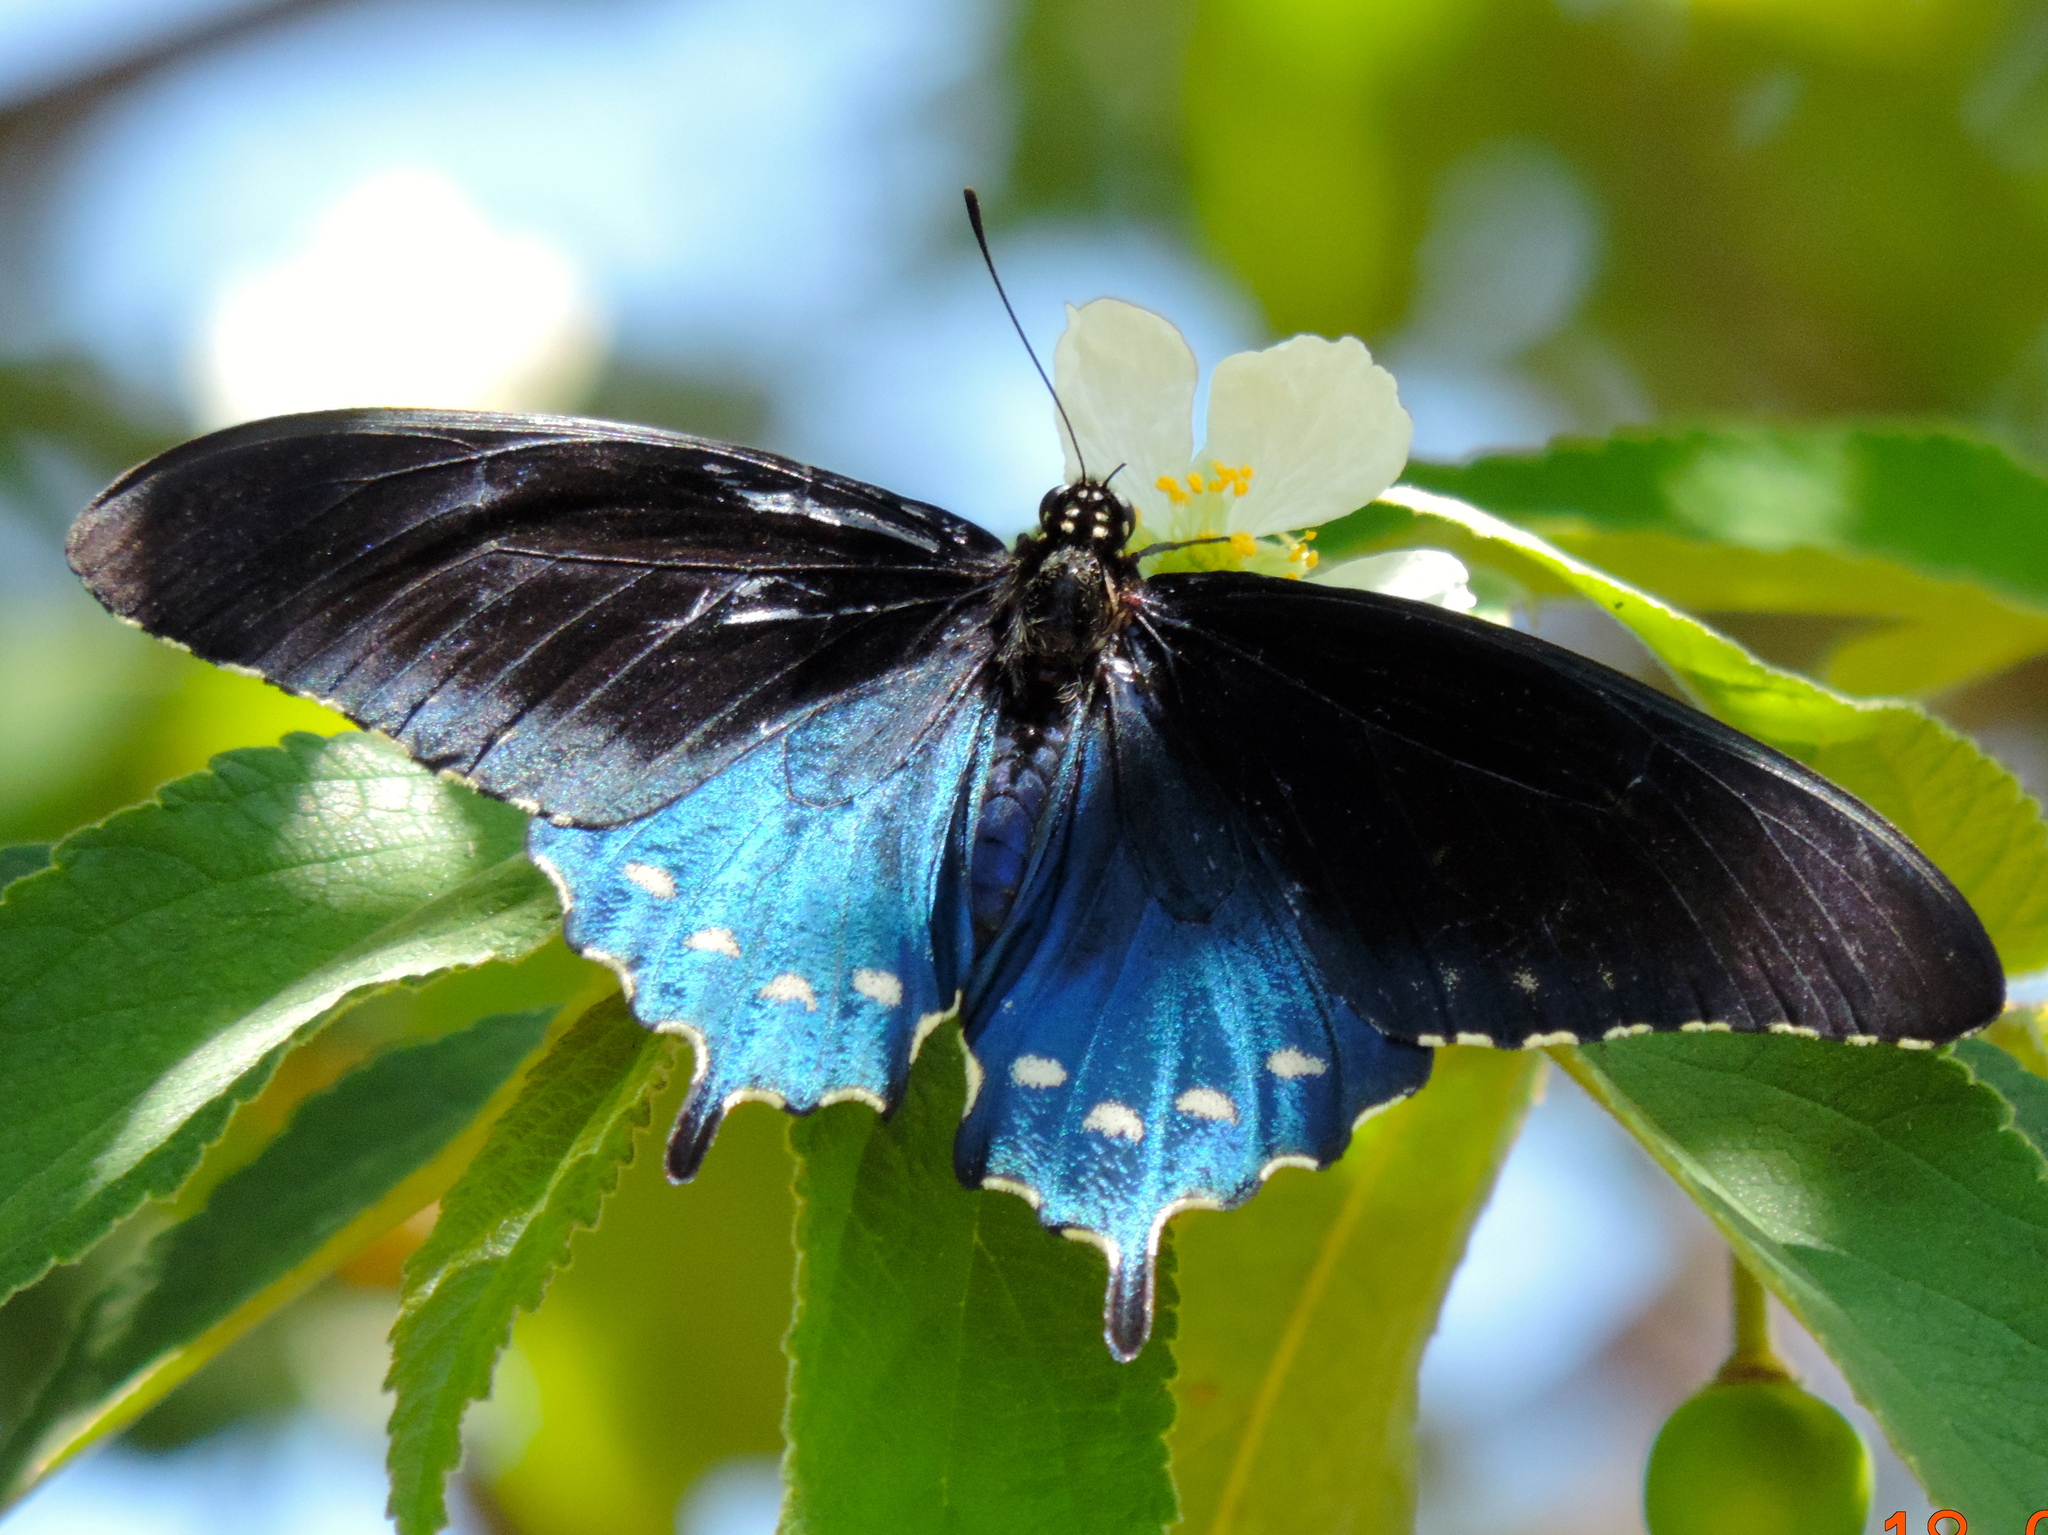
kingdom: Animalia
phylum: Arthropoda
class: Insecta
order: Lepidoptera
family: Papilionidae
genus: Battus
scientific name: Battus philenor
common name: Pipevine swallowtail
